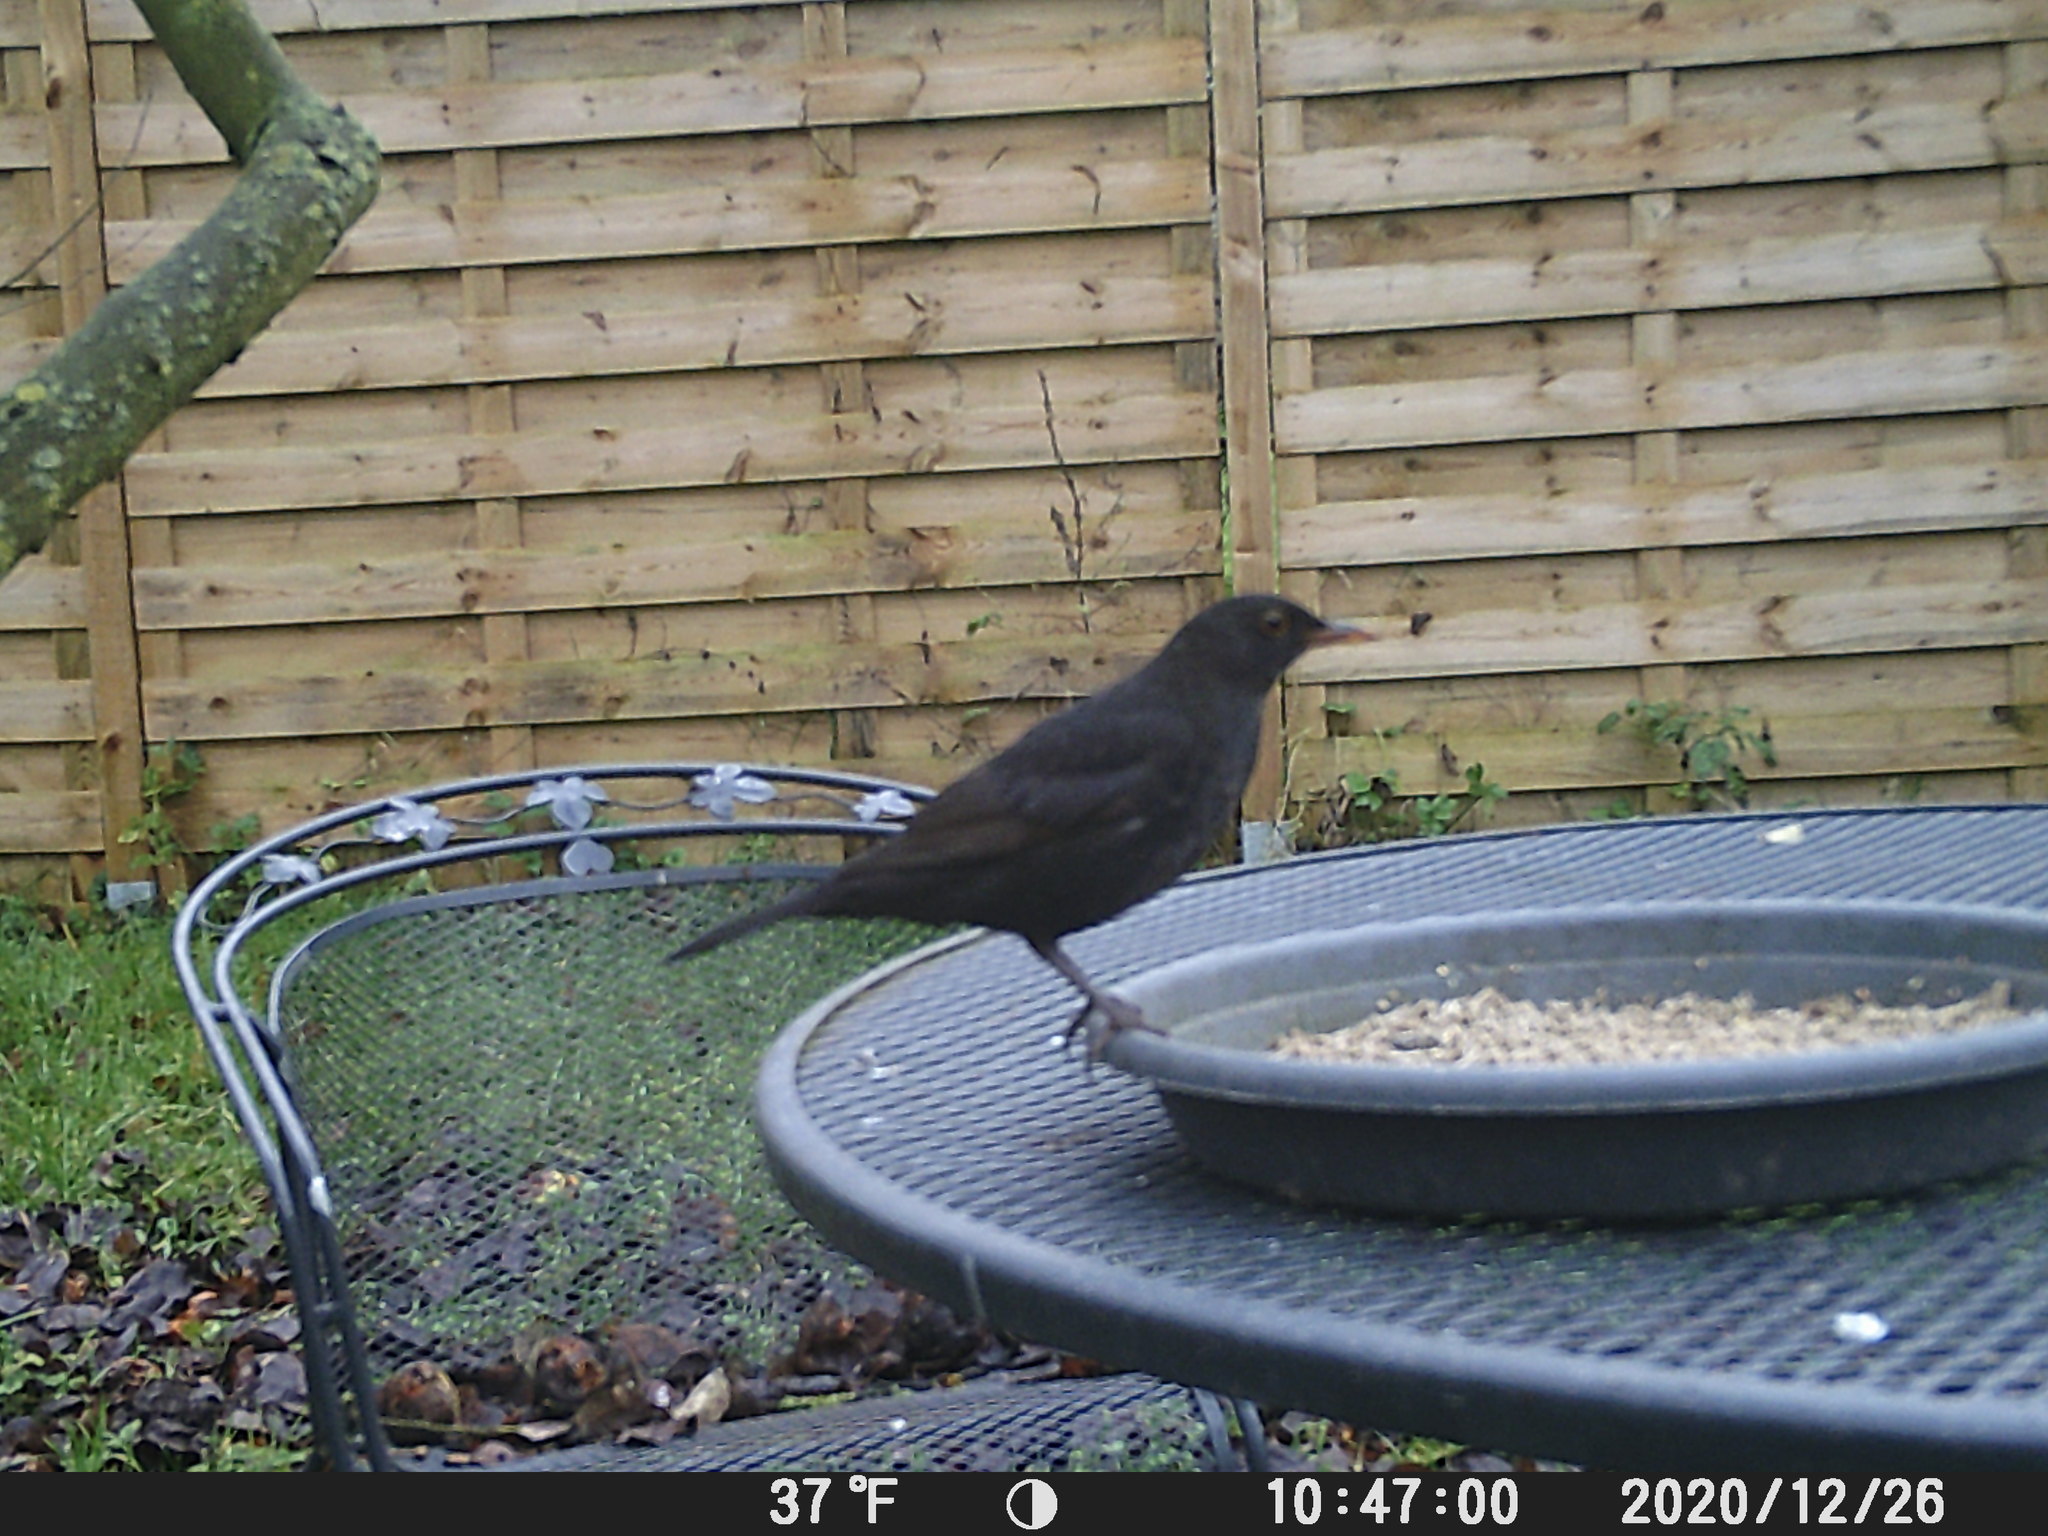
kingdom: Animalia
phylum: Chordata
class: Aves
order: Passeriformes
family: Turdidae
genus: Turdus
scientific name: Turdus merula
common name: Common blackbird
